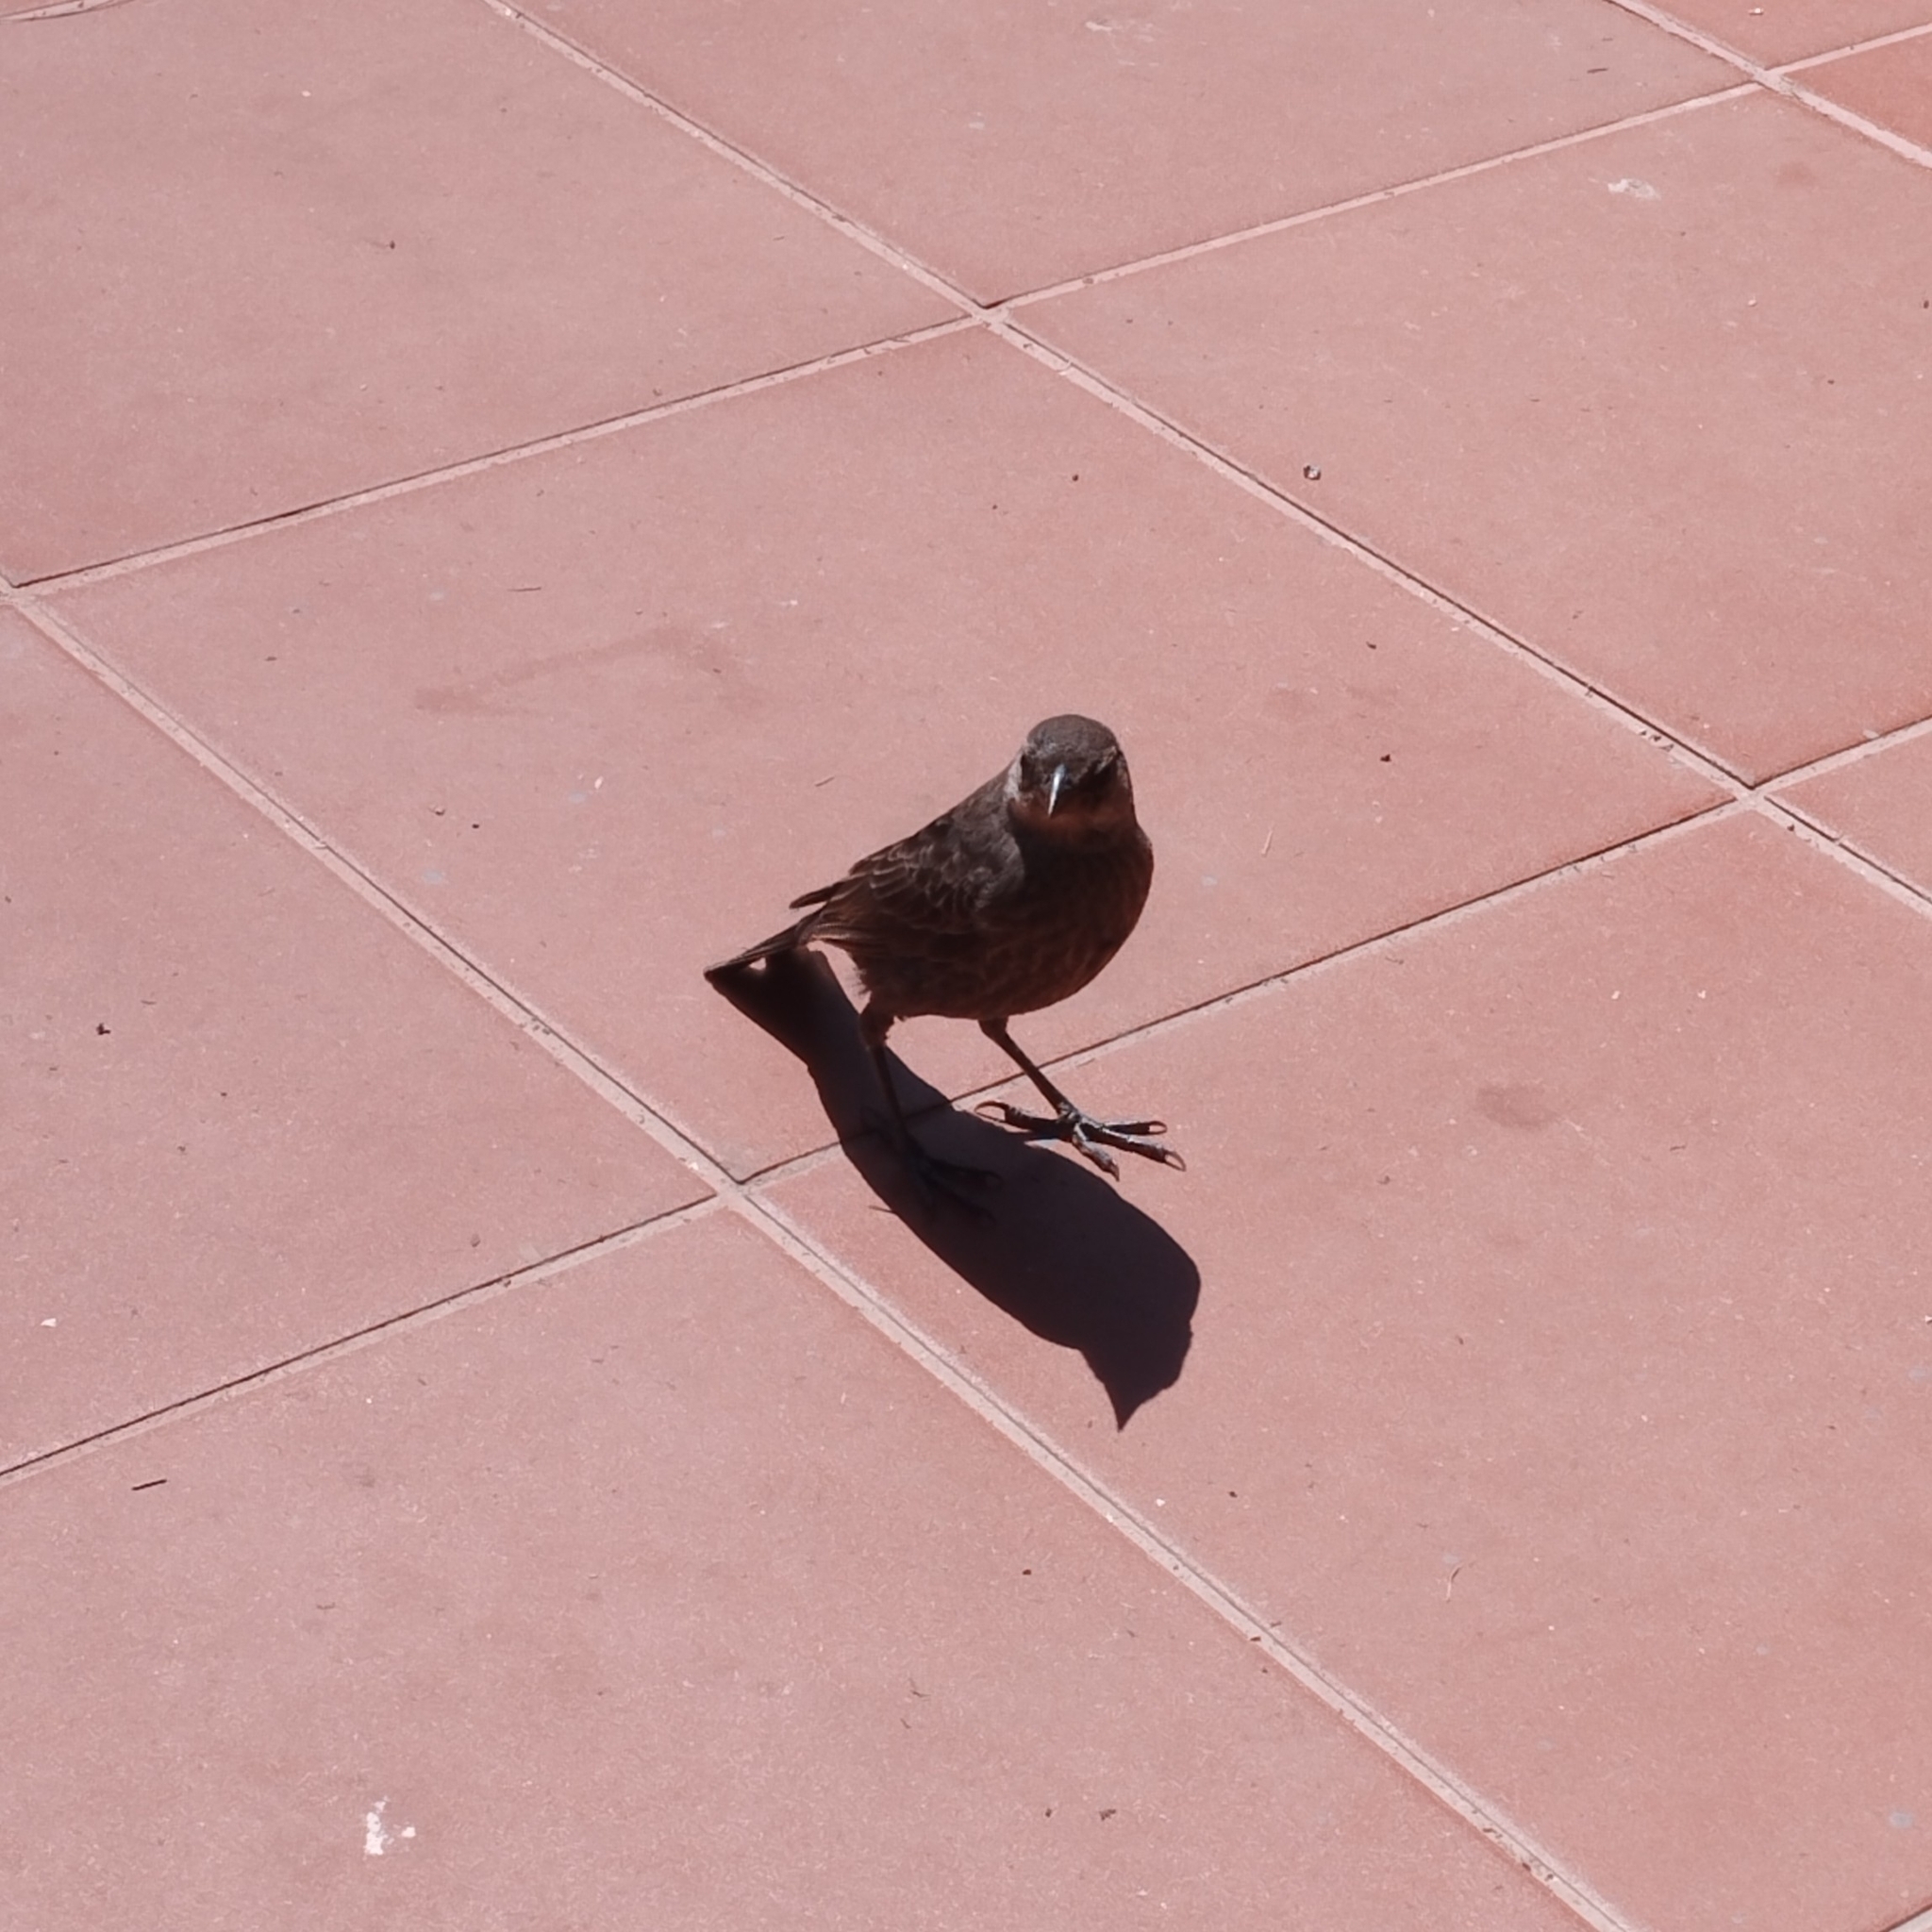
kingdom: Animalia
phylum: Chordata
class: Aves
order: Passeriformes
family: Icteridae
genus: Molothrus
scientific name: Molothrus bonariensis
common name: Shiny cowbird
